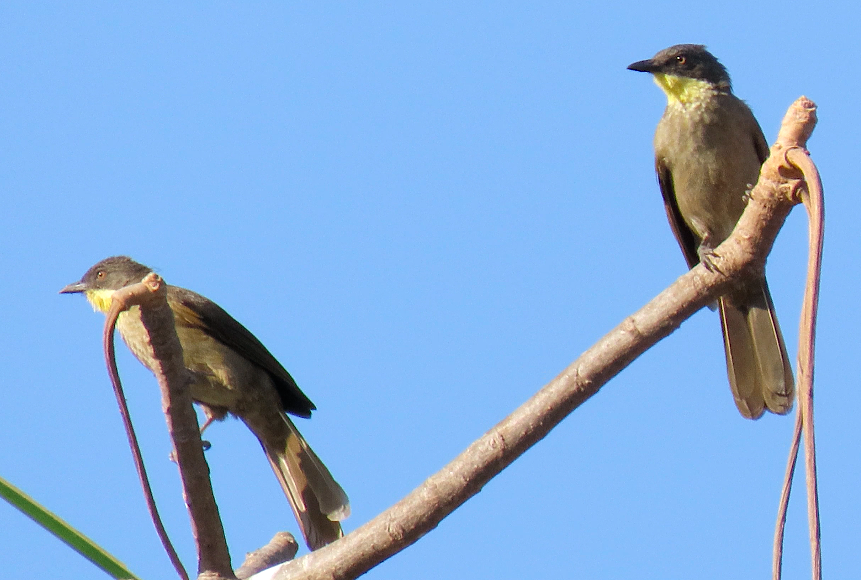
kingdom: Animalia
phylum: Chordata
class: Aves
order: Passeriformes
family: Pycnonotidae
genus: Atimastillas
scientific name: Atimastillas flavicollis
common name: Yellow-throated leaflove
